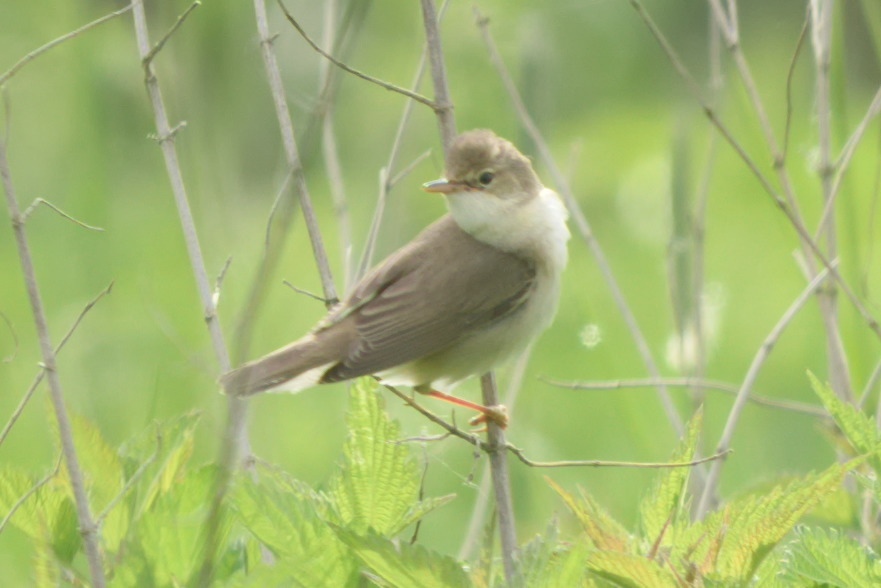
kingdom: Animalia
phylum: Chordata
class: Aves
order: Passeriformes
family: Acrocephalidae
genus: Acrocephalus
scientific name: Acrocephalus palustris
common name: Marsh warbler
